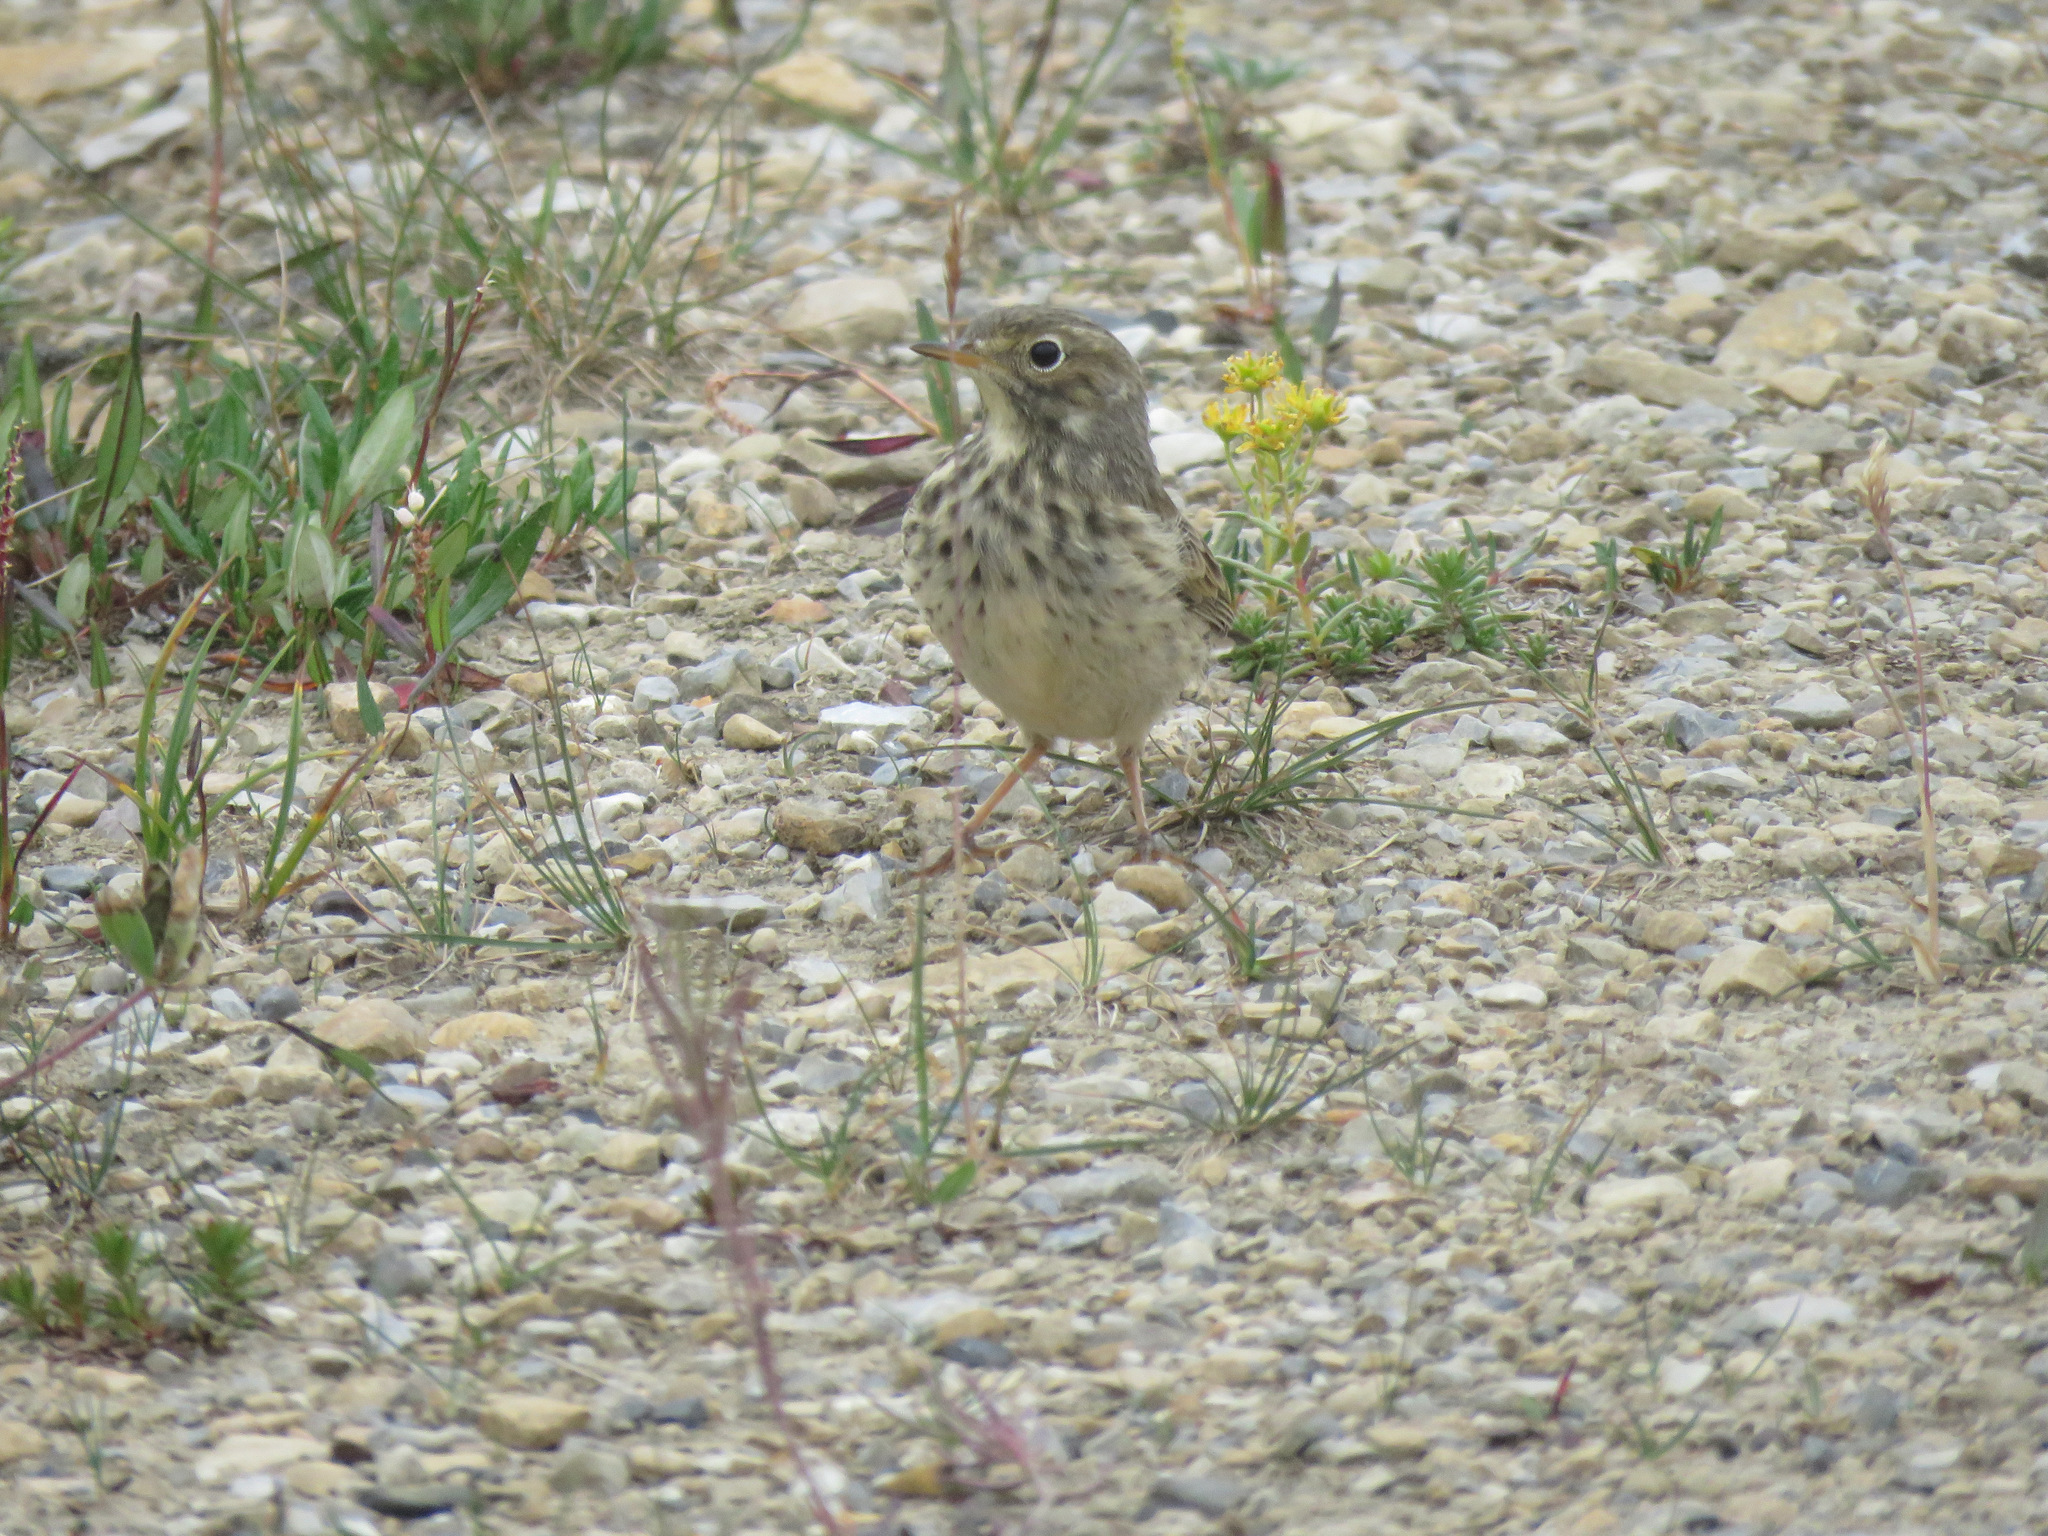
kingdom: Animalia
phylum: Chordata
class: Aves
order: Passeriformes
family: Motacillidae
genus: Anthus
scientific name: Anthus rubescens
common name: Buff-bellied pipit
